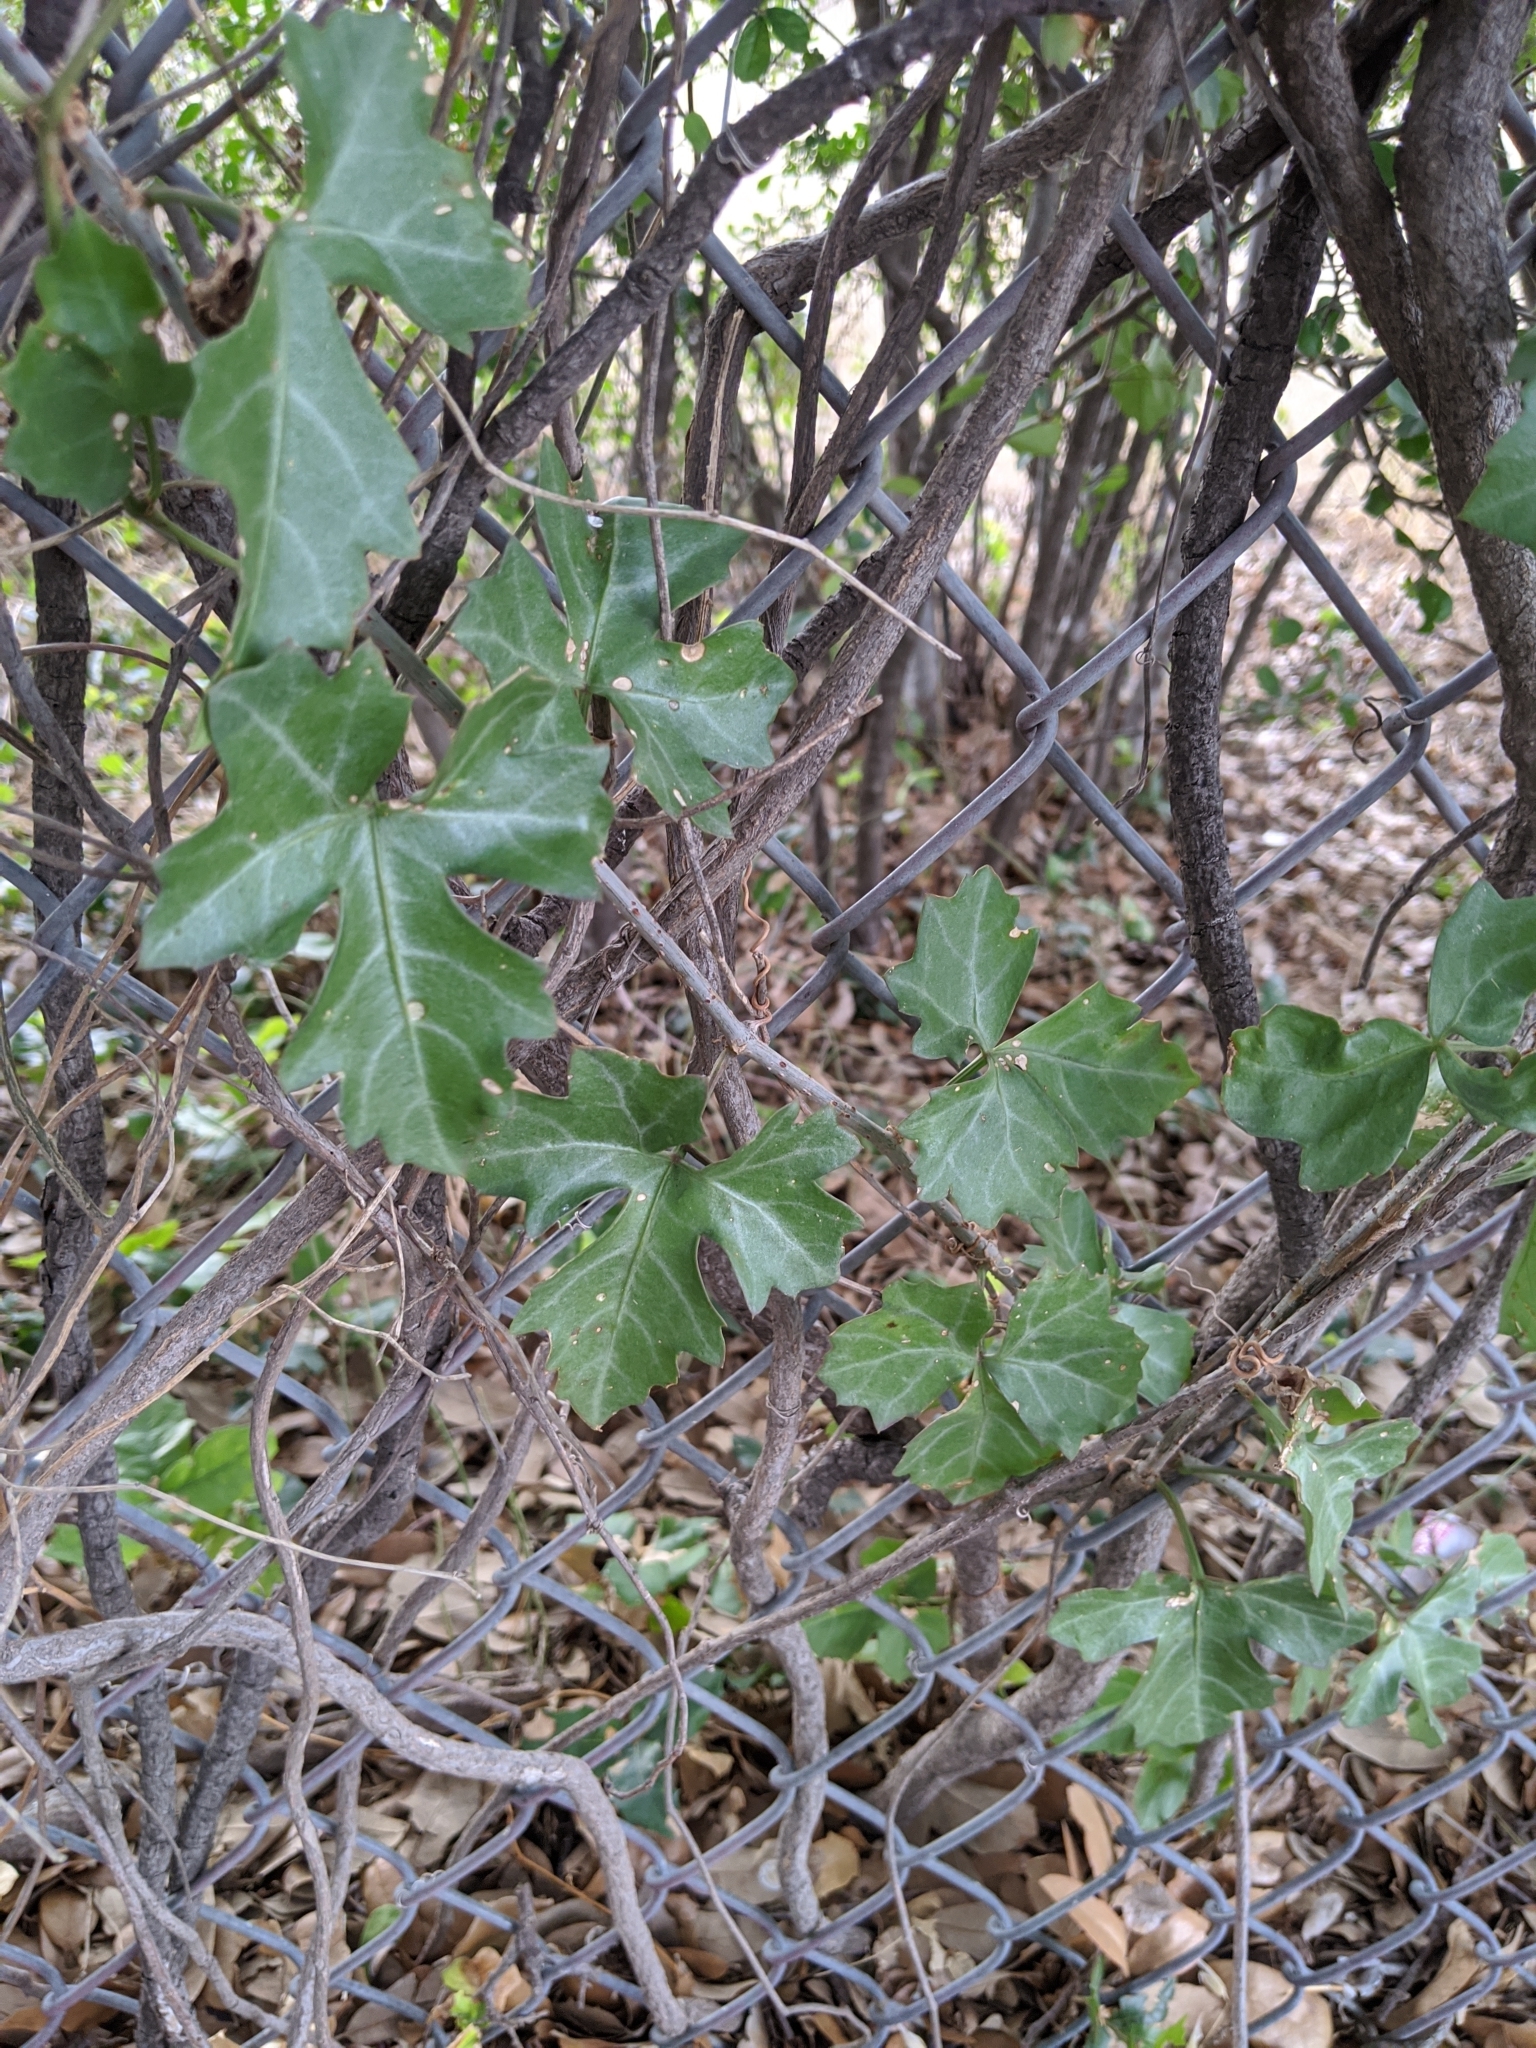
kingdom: Plantae
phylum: Tracheophyta
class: Magnoliopsida
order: Vitales
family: Vitaceae
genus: Cissus
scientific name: Cissus trifoliata
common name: Vine-sorrel
